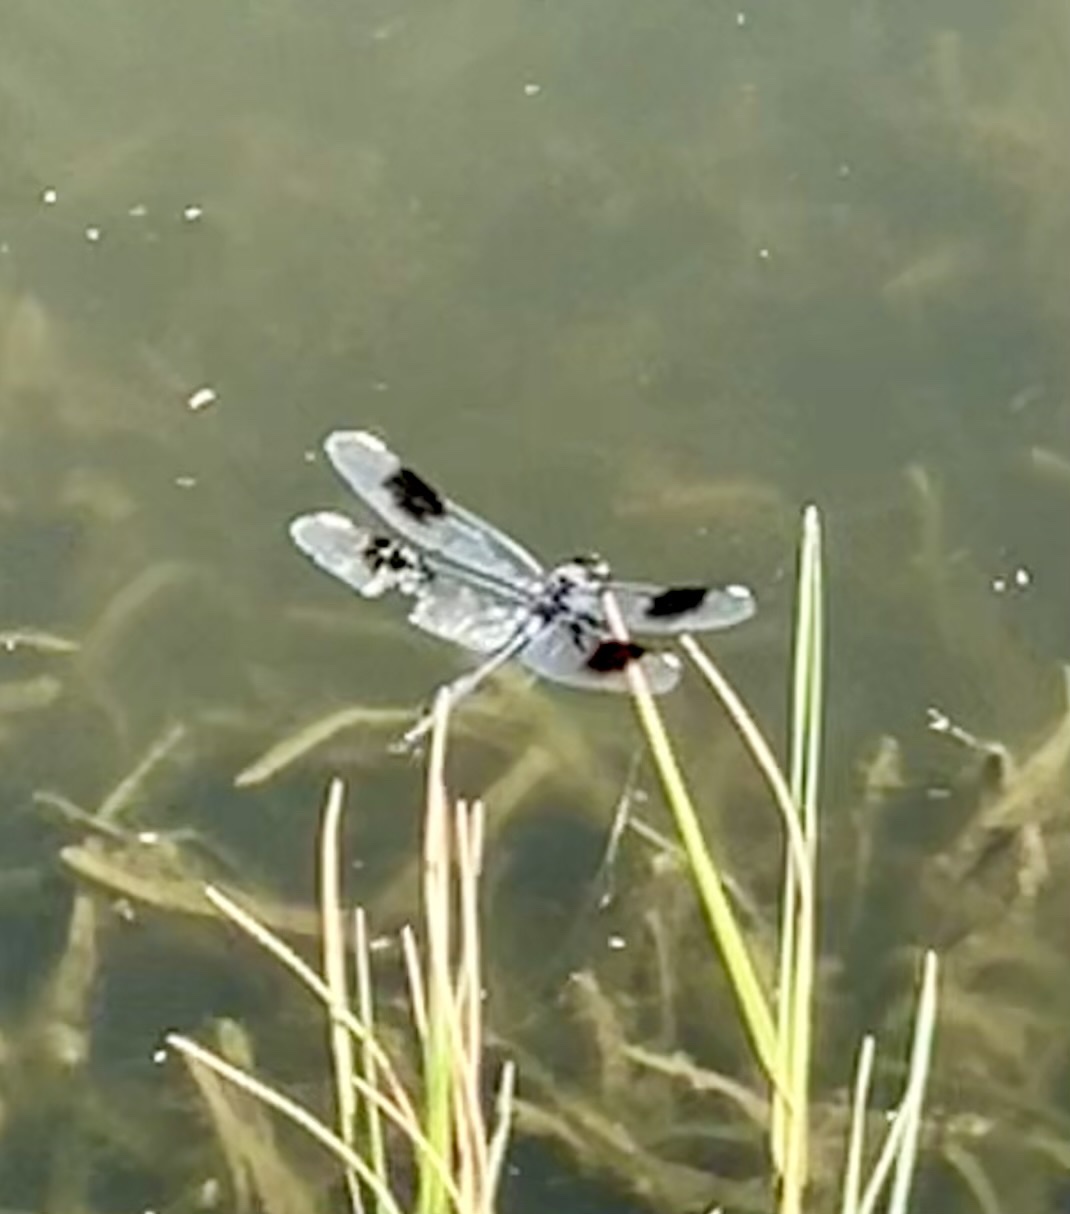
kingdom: Animalia
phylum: Arthropoda
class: Insecta
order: Odonata
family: Libellulidae
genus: Brachymesia
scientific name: Brachymesia gravida
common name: Four-spotted pennant
